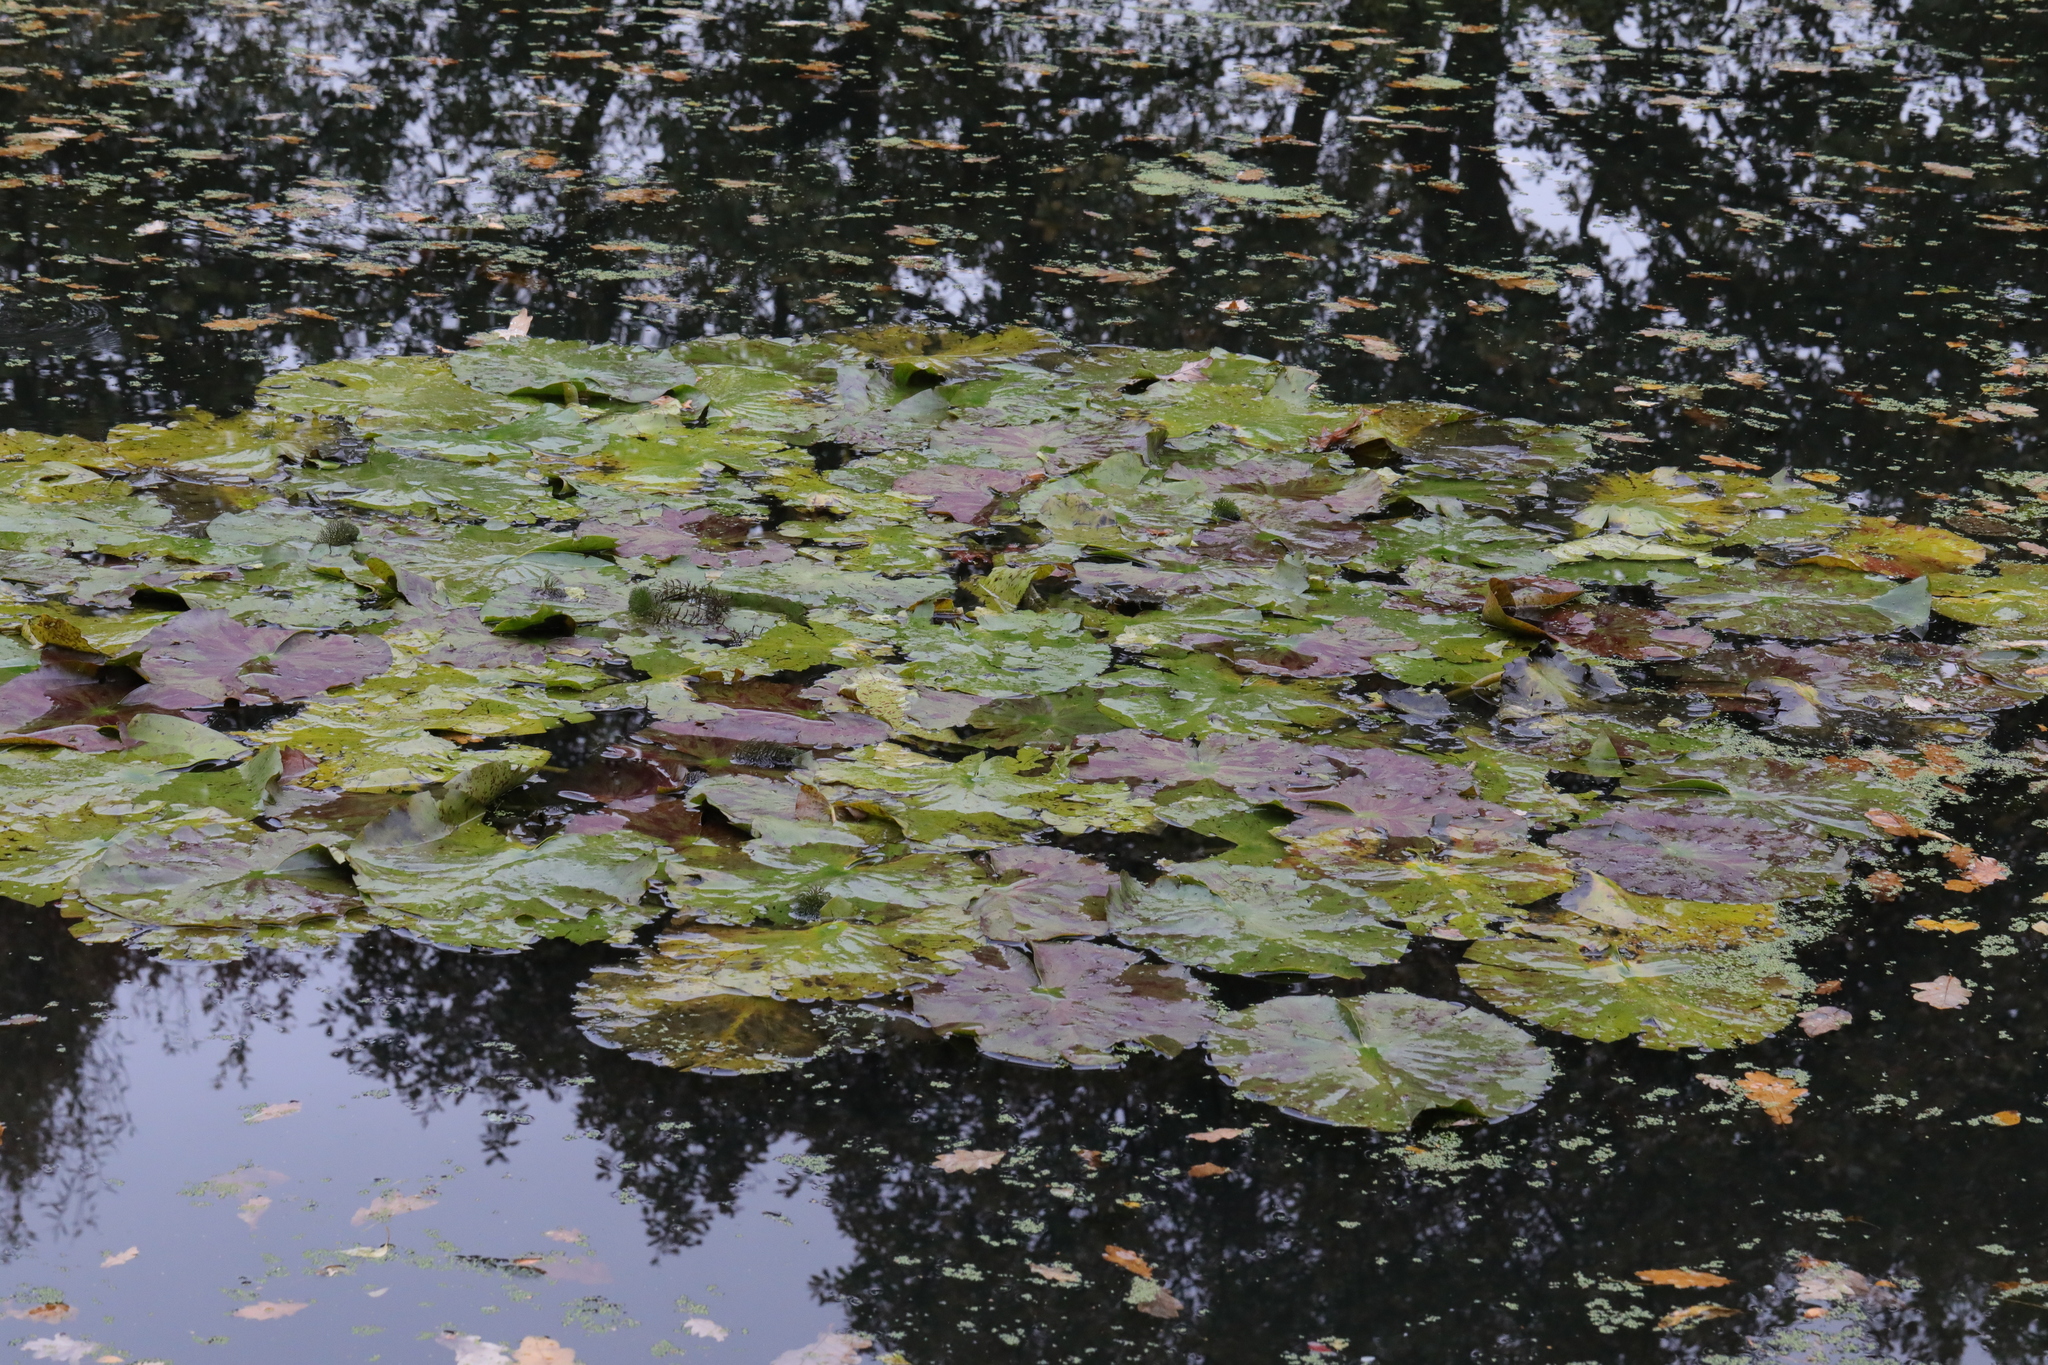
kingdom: Plantae
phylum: Tracheophyta
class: Magnoliopsida
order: Nymphaeales
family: Nymphaeaceae
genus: Nuphar
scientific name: Nuphar lutea
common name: Yellow water-lily
